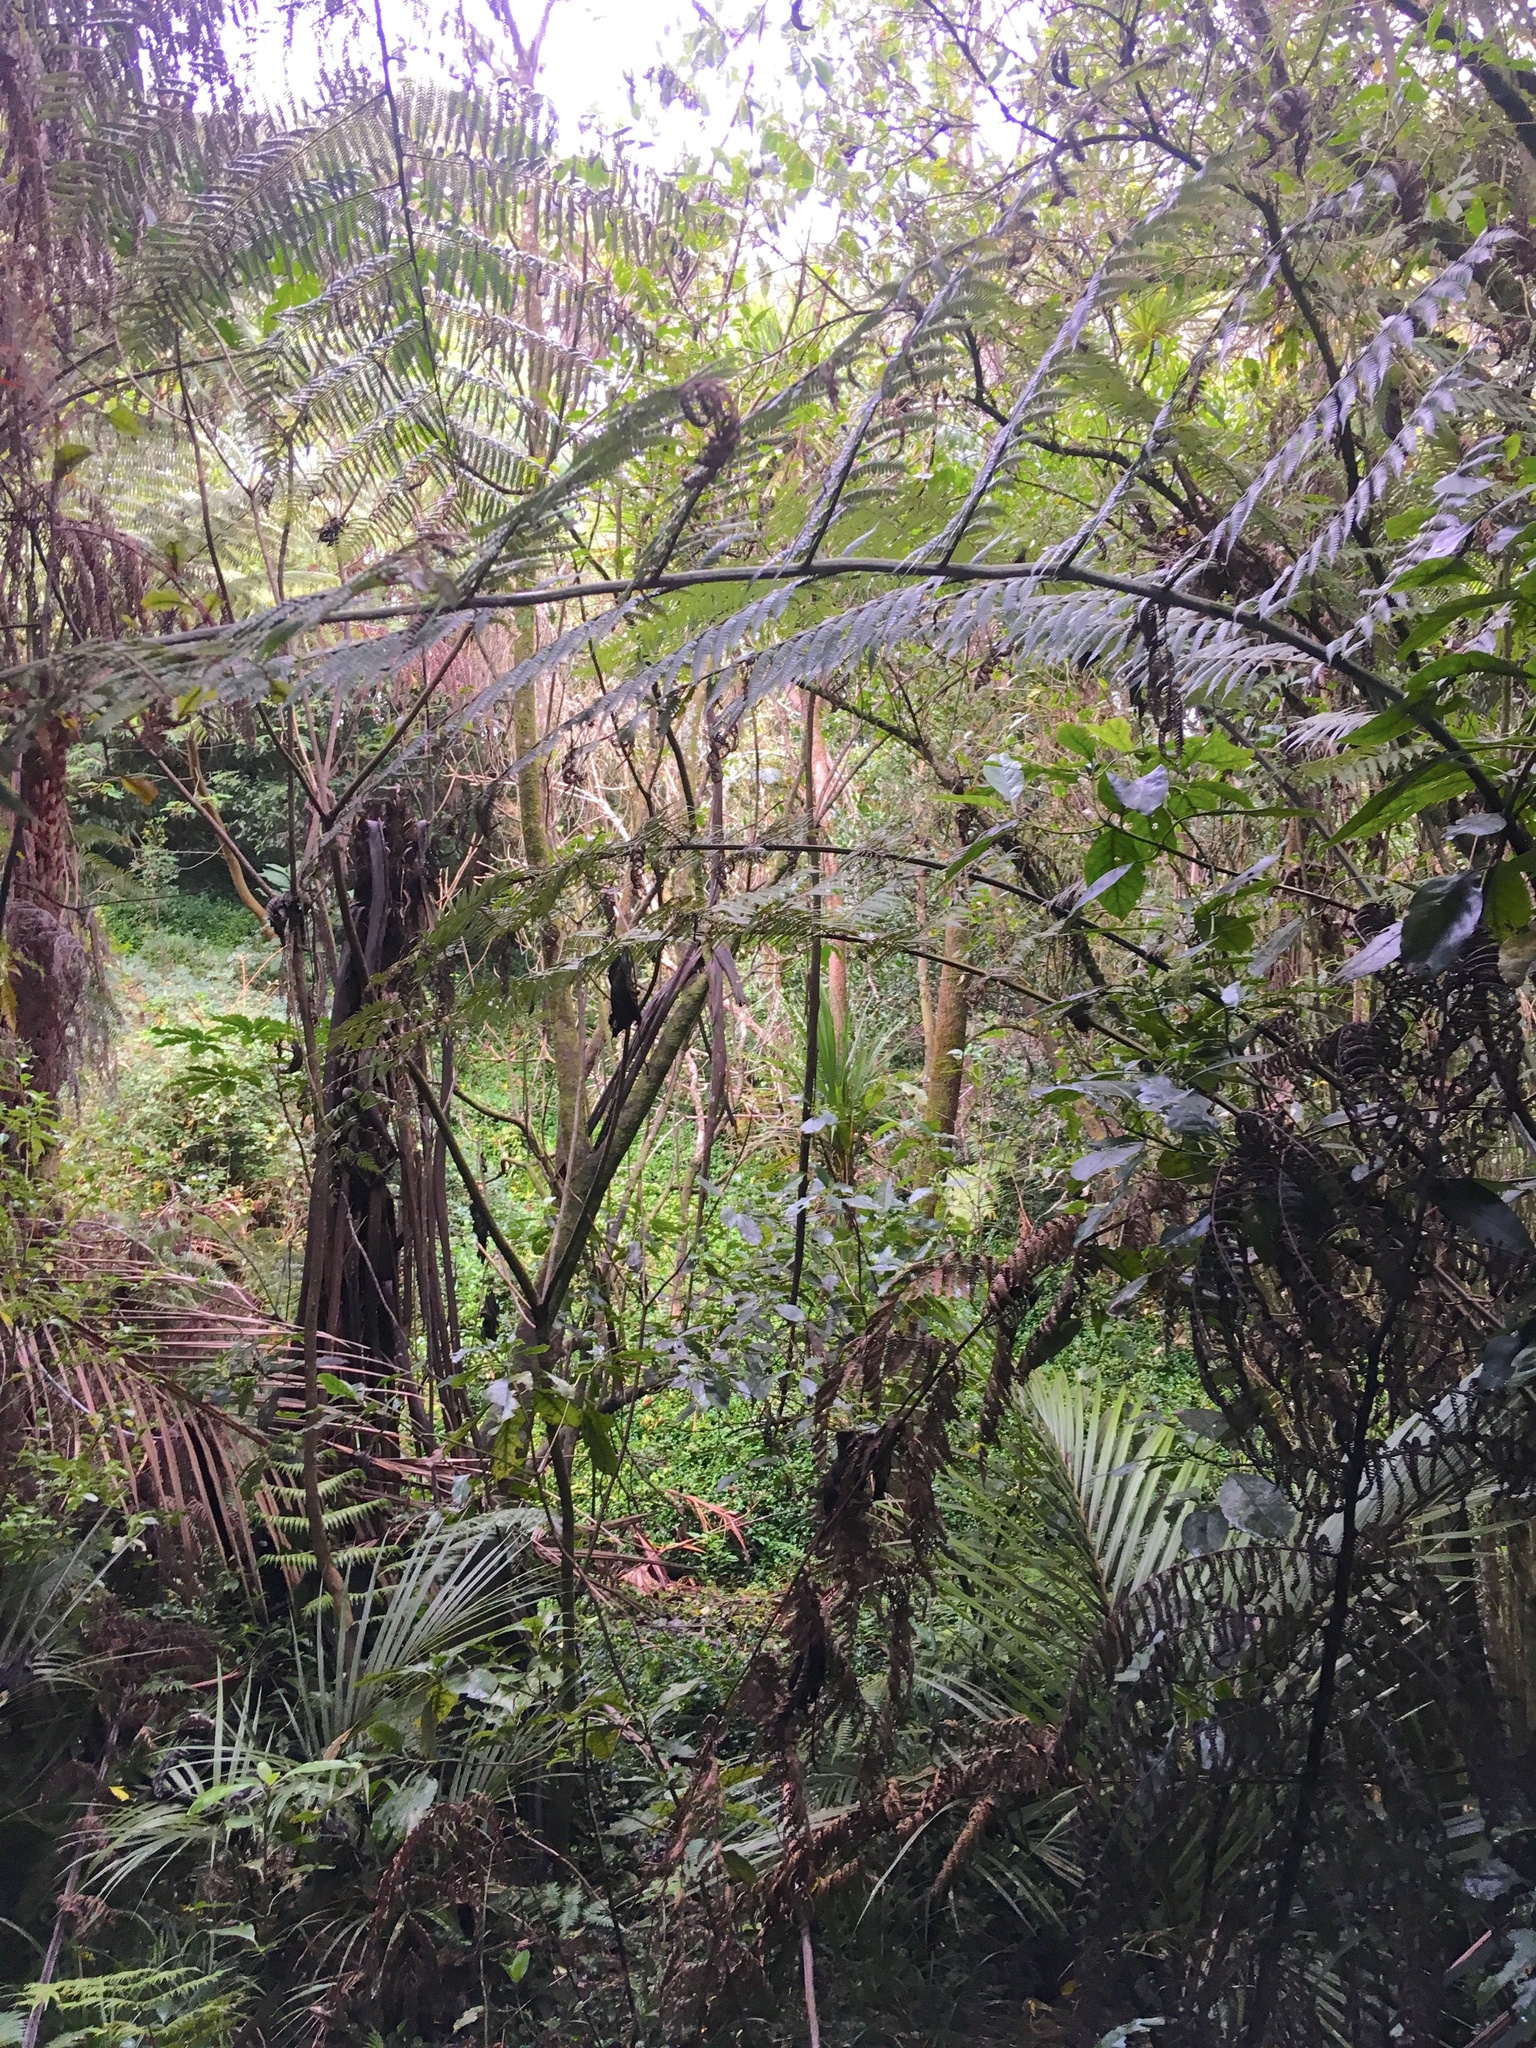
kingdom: Plantae
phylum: Tracheophyta
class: Liliopsida
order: Commelinales
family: Commelinaceae
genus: Tradescantia
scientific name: Tradescantia fluminensis
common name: Wandering-jew
